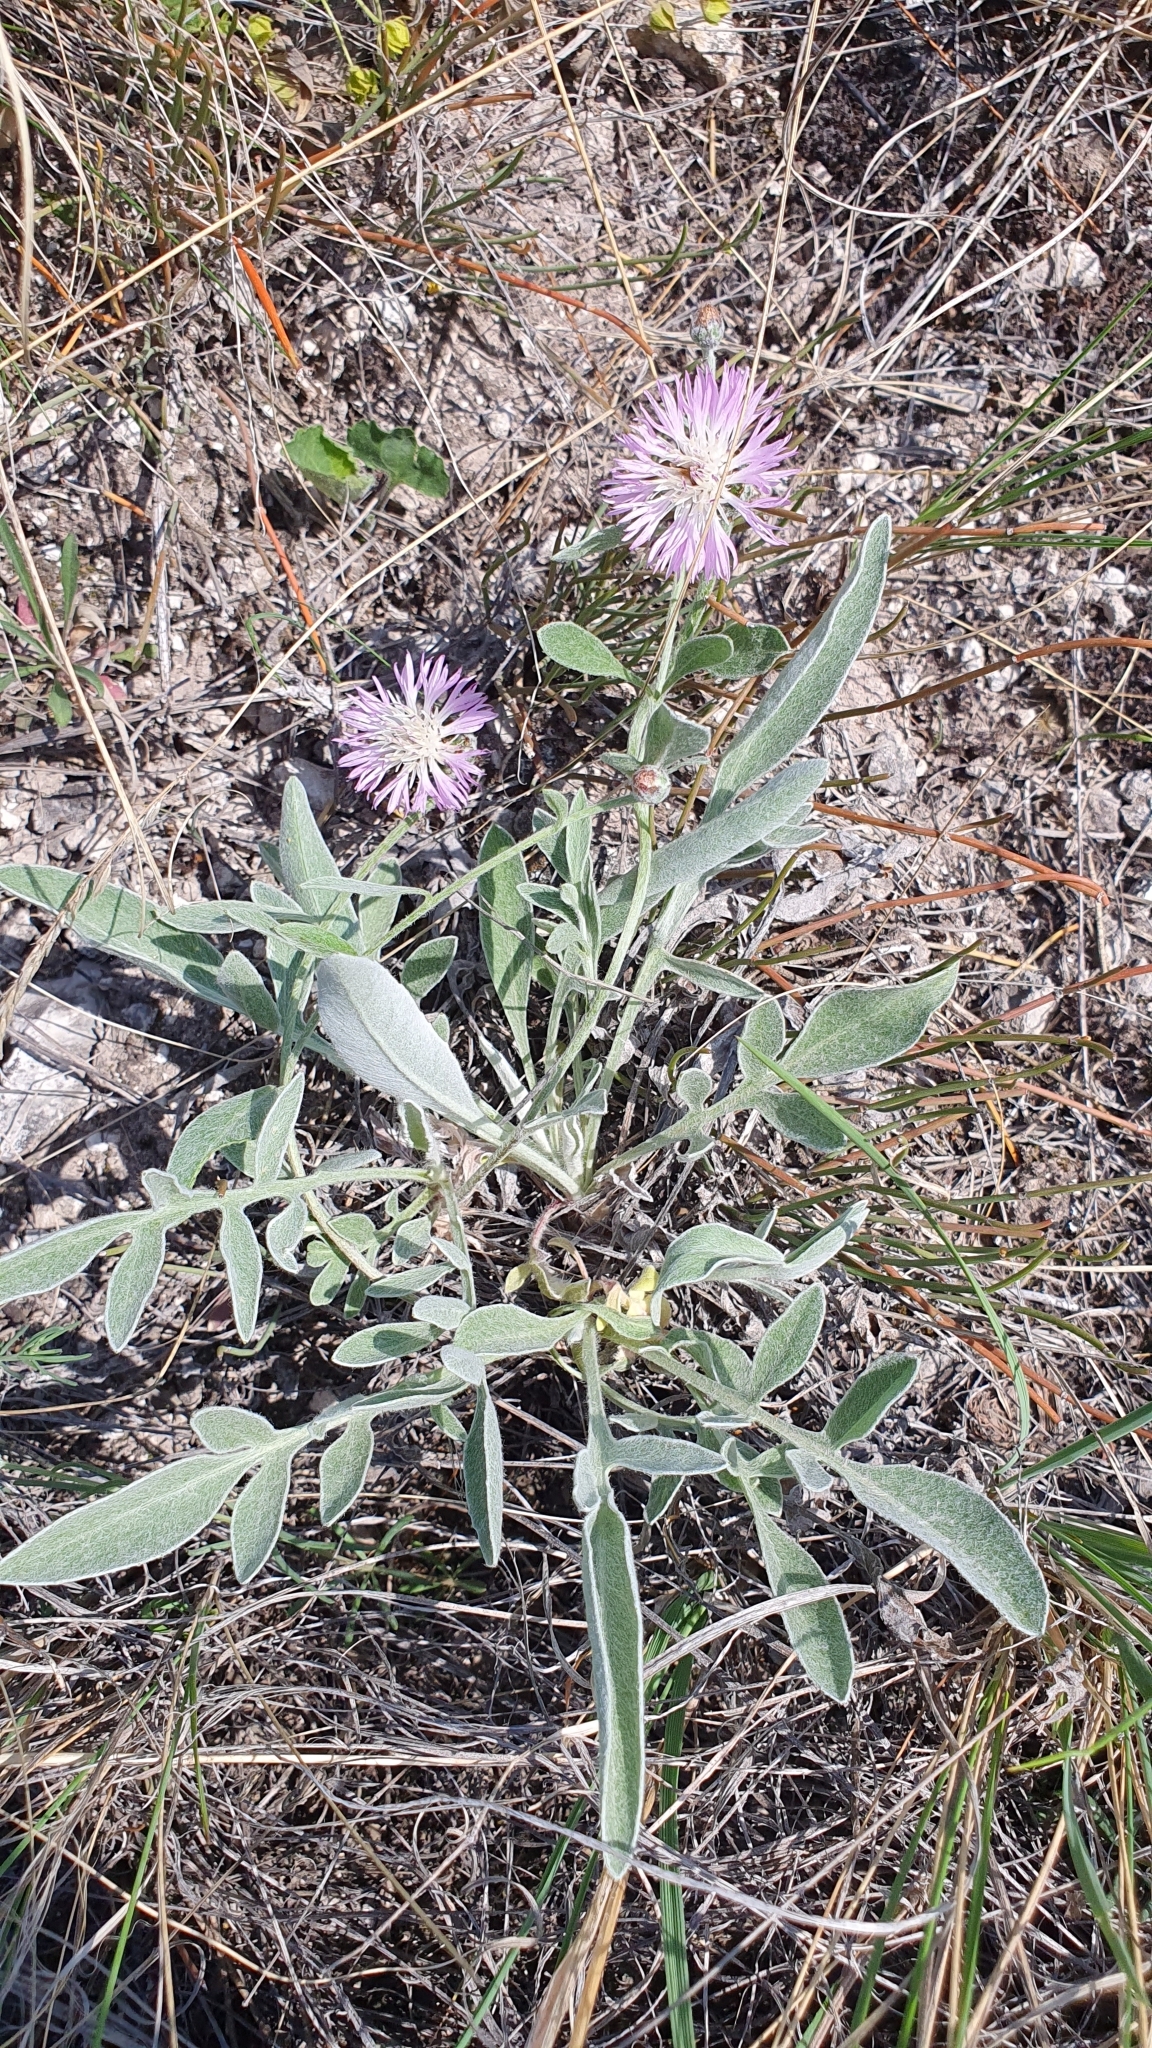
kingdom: Plantae
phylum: Tracheophyta
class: Magnoliopsida
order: Asterales
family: Asteraceae
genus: Psephellus
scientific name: Psephellus marschallianus
